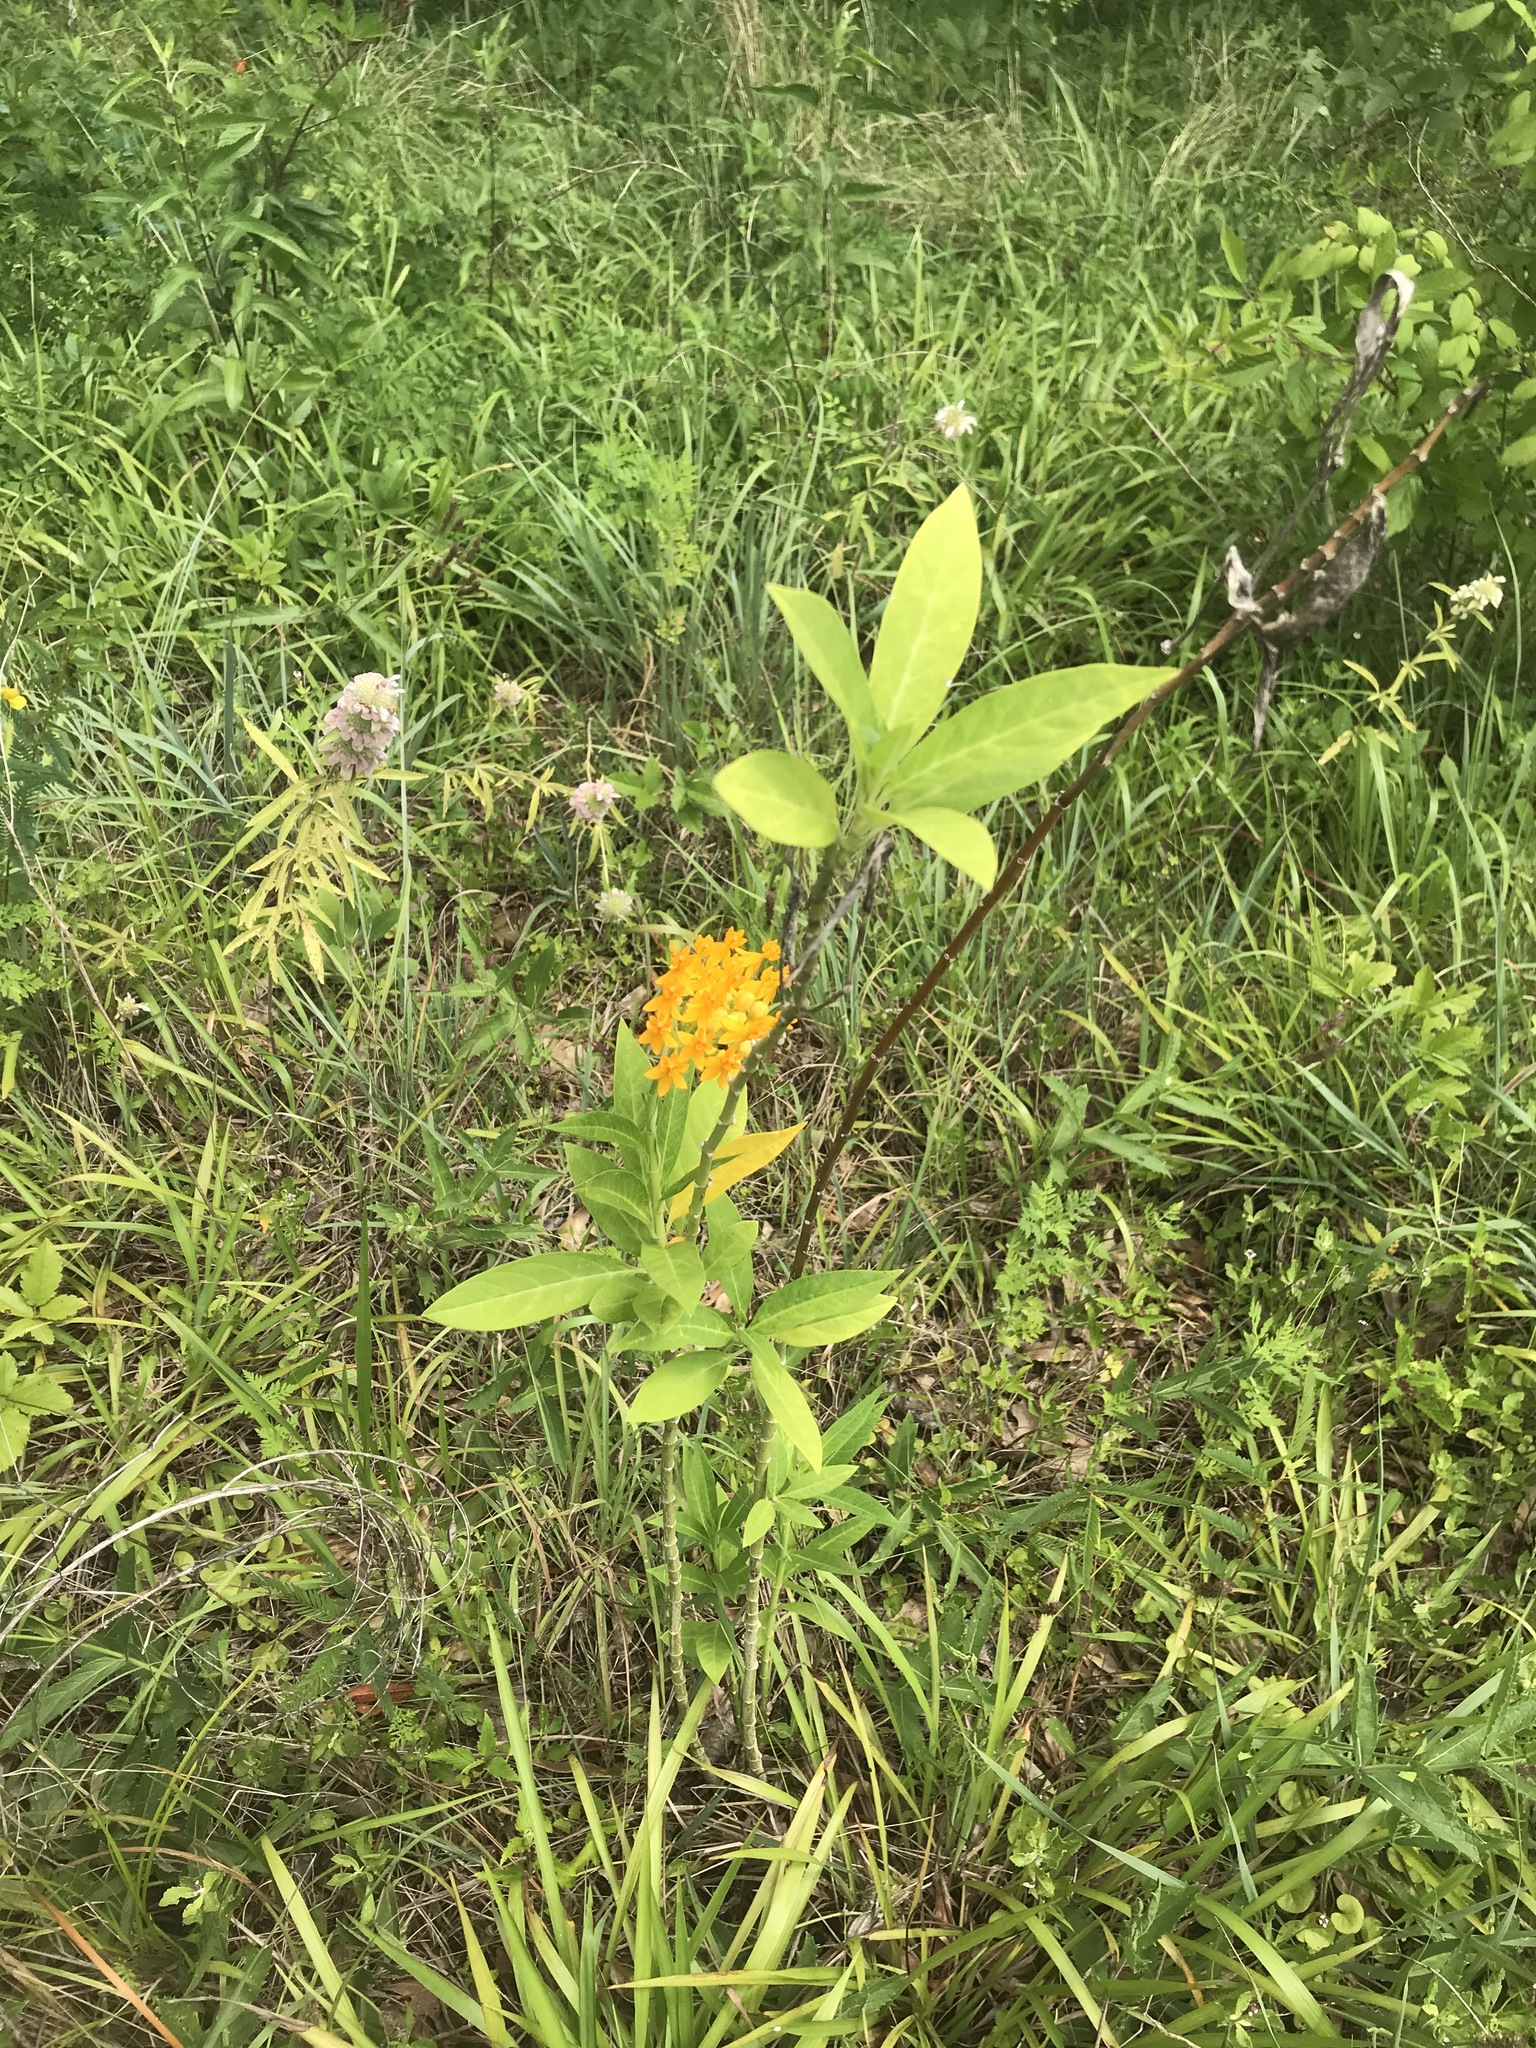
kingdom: Plantae
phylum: Tracheophyta
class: Magnoliopsida
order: Gentianales
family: Apocynaceae
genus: Asclepias
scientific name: Asclepias curassavica
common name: Bloodflower
